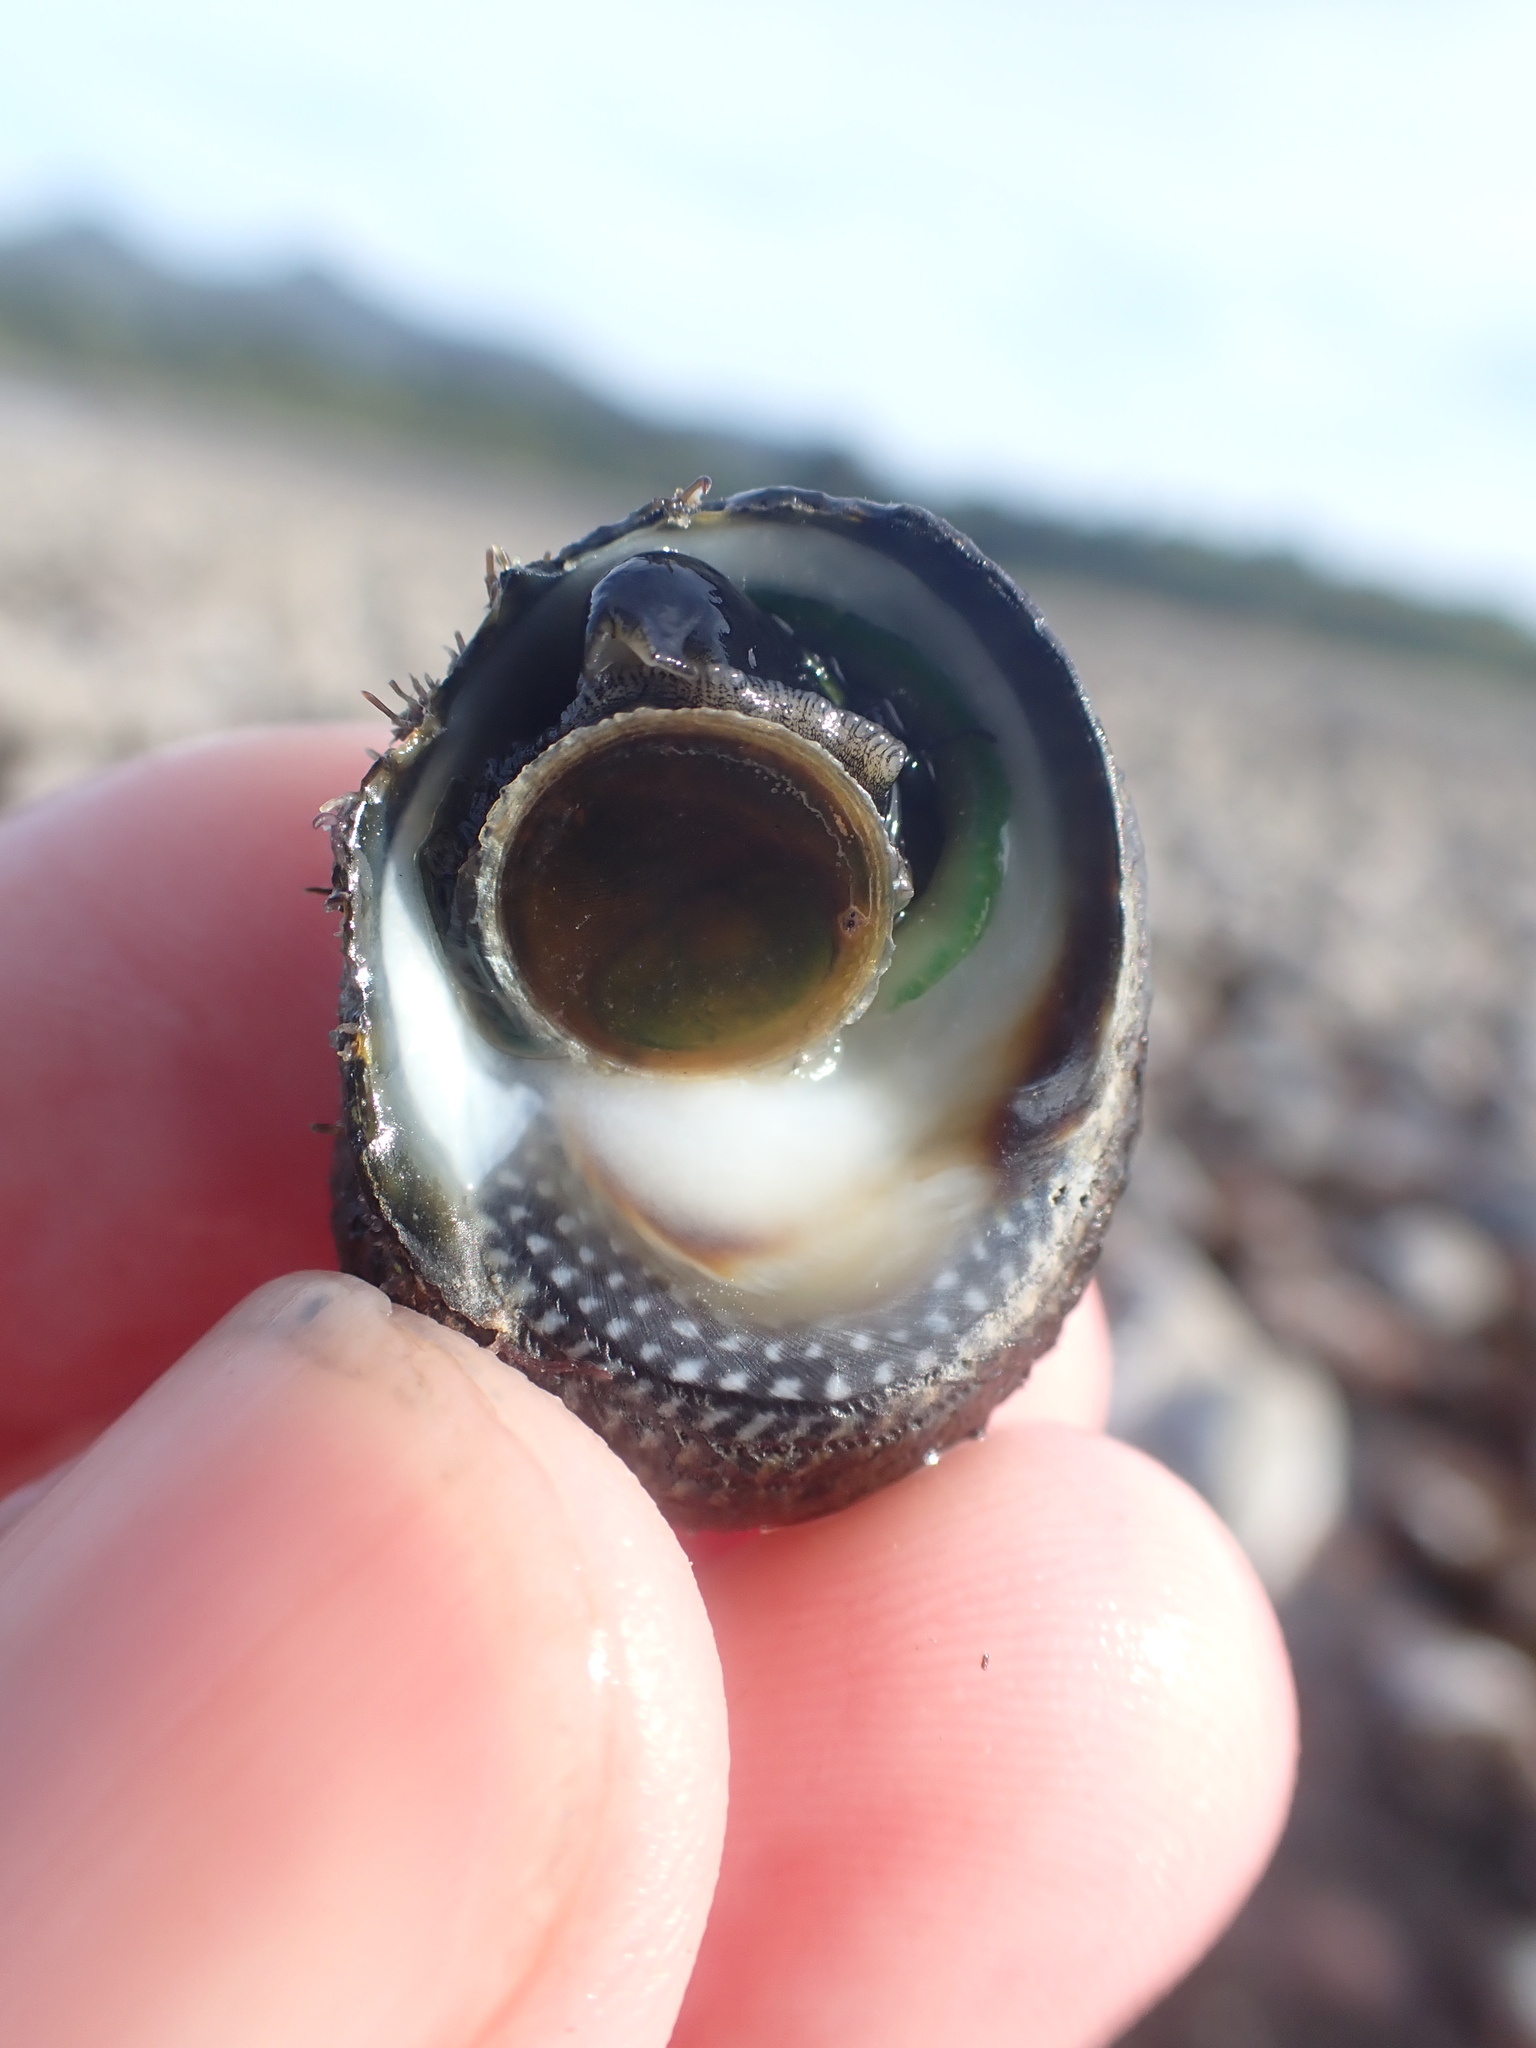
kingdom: Animalia
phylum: Mollusca
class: Gastropoda
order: Trochida
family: Trochidae
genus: Diloma
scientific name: Diloma aethiops
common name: Scorched monodont
